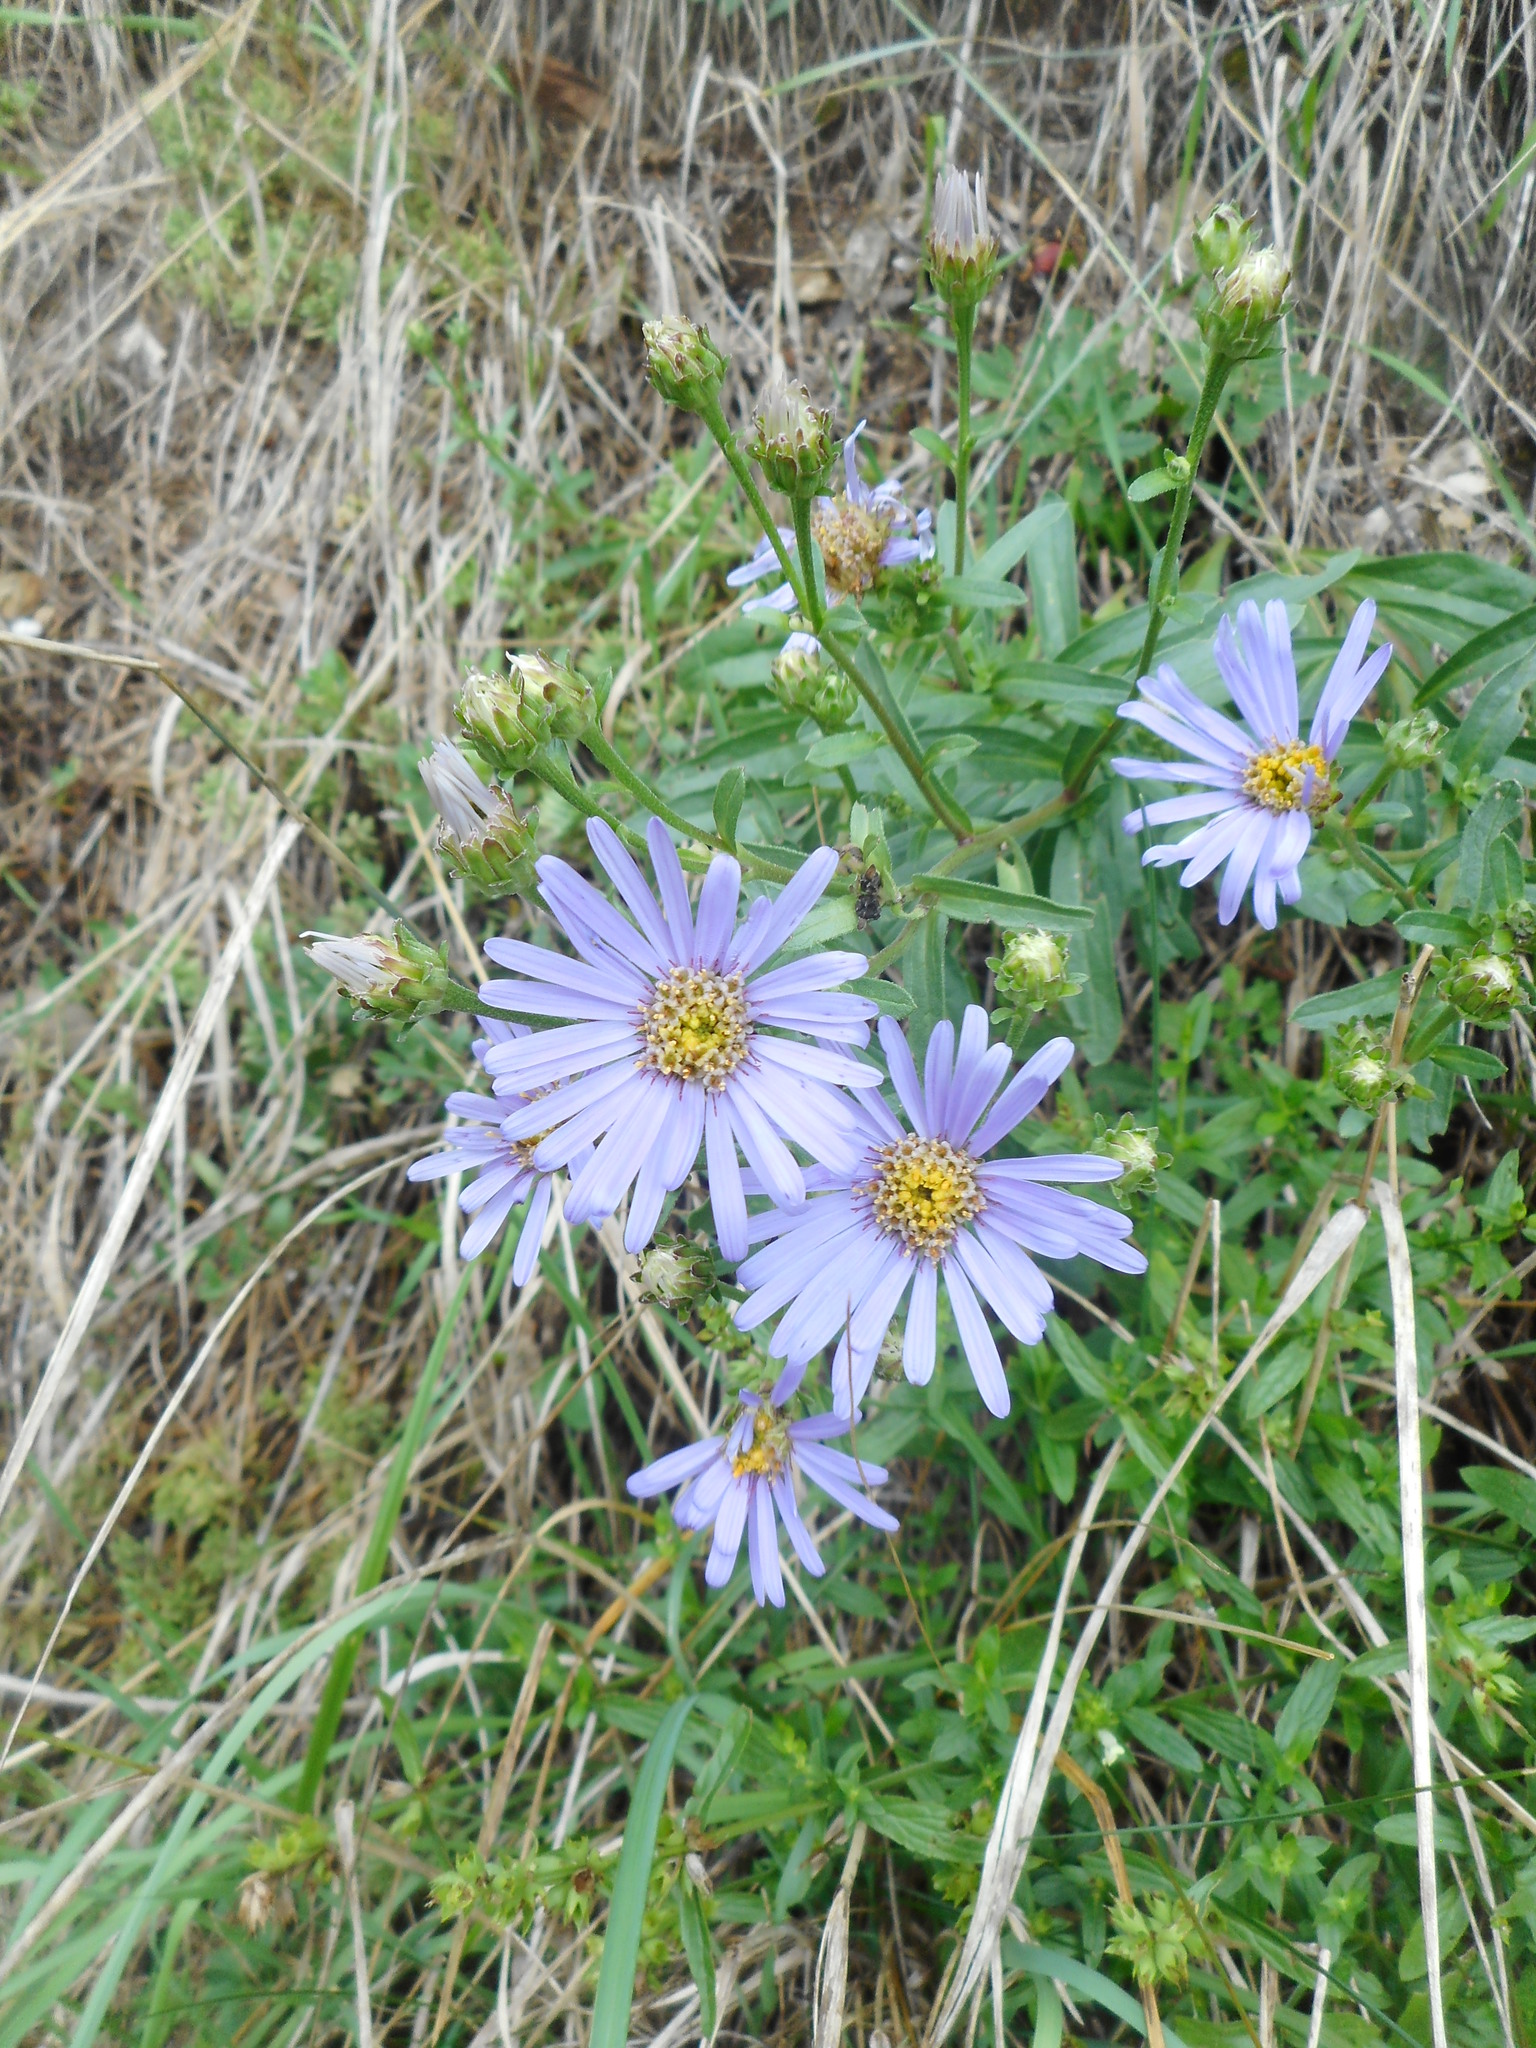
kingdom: Plantae
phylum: Tracheophyta
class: Magnoliopsida
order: Asterales
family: Asteraceae
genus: Aster
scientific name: Aster amellus
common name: European michaelmas daisy
